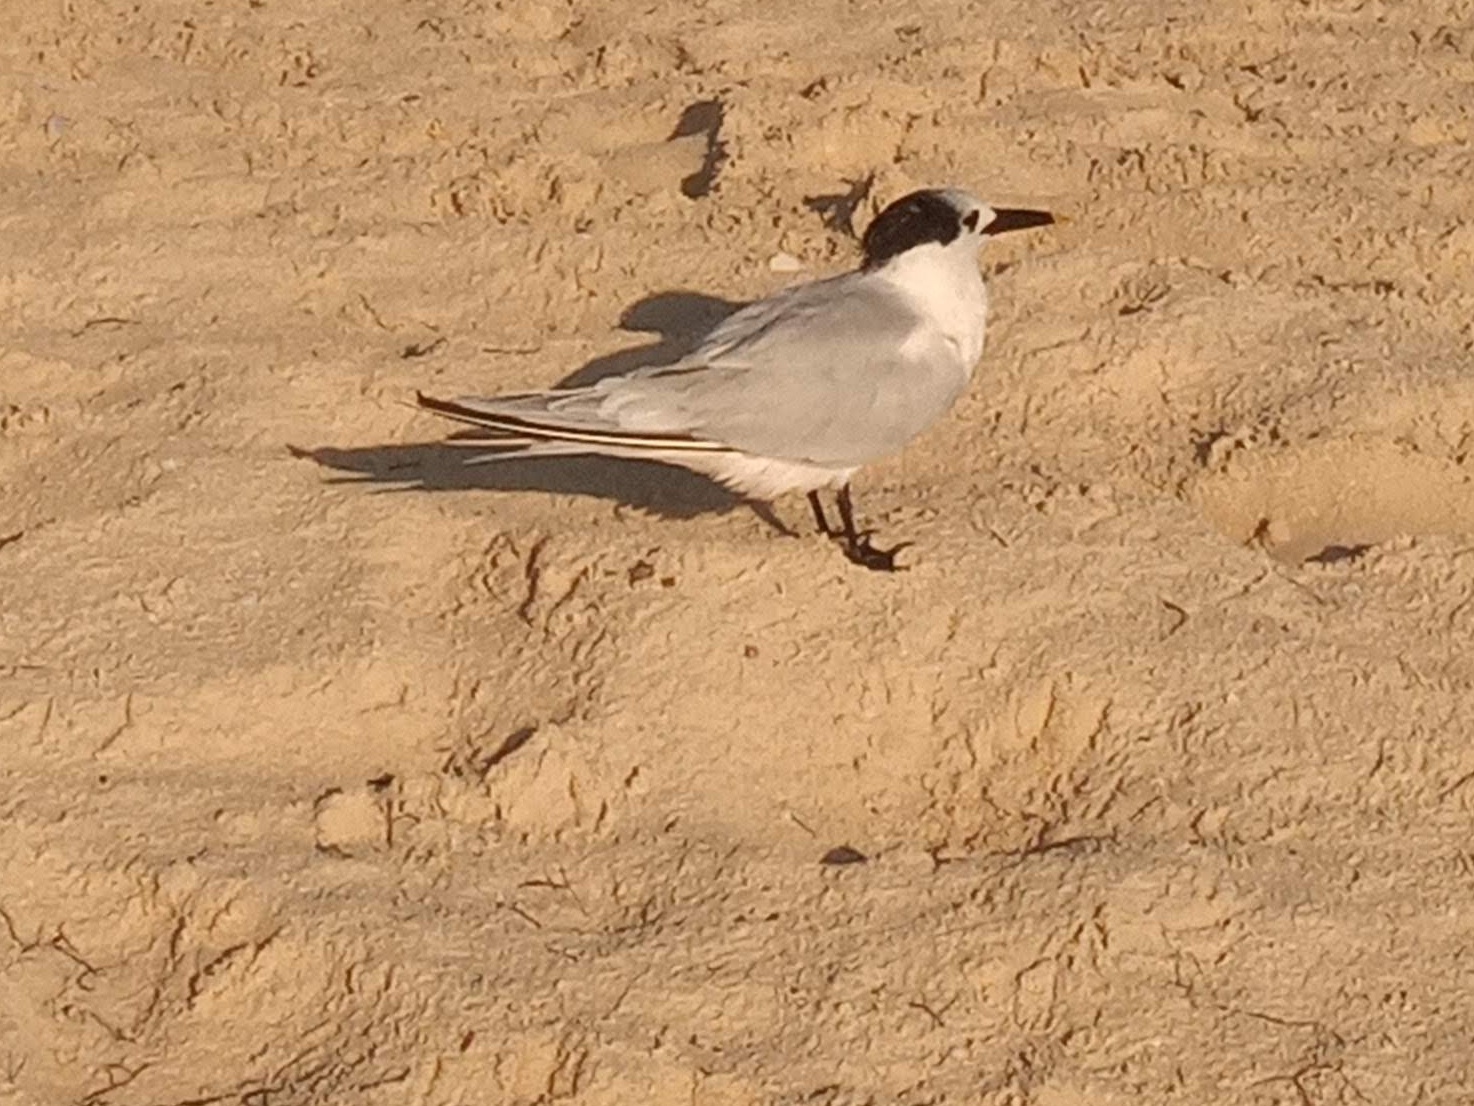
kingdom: Animalia
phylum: Chordata
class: Aves
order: Charadriiformes
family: Laridae
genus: Thalasseus
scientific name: Thalasseus sandvicensis
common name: Sandwich tern
